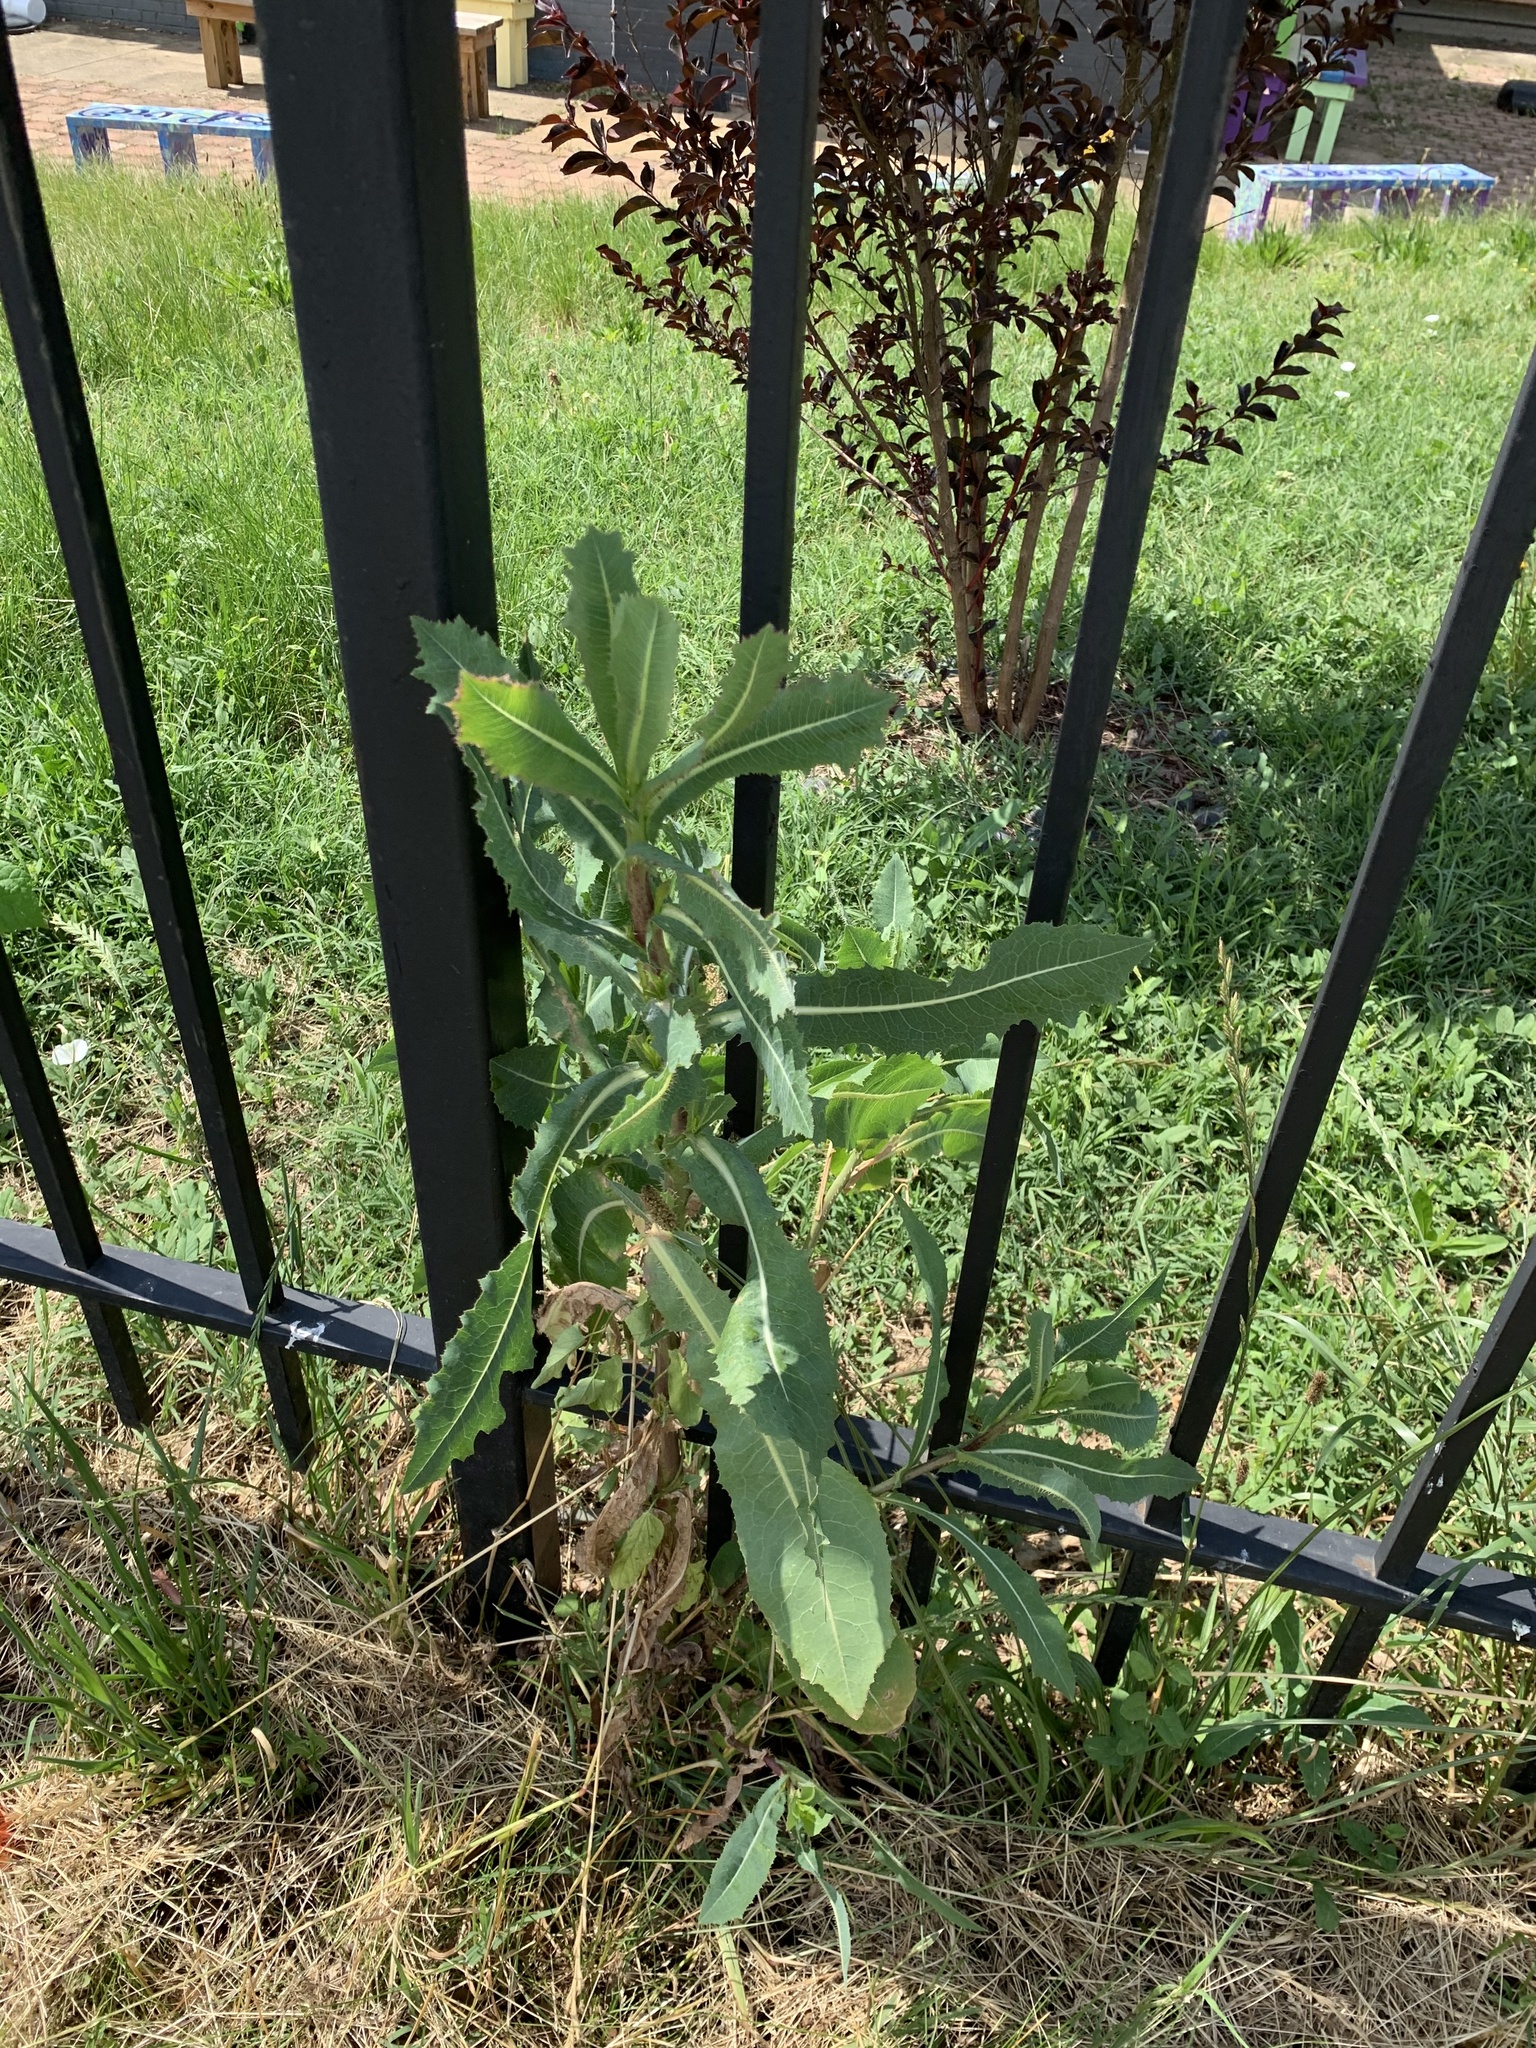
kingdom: Plantae
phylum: Tracheophyta
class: Magnoliopsida
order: Asterales
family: Asteraceae
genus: Lactuca
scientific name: Lactuca serriola
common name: Prickly lettuce
